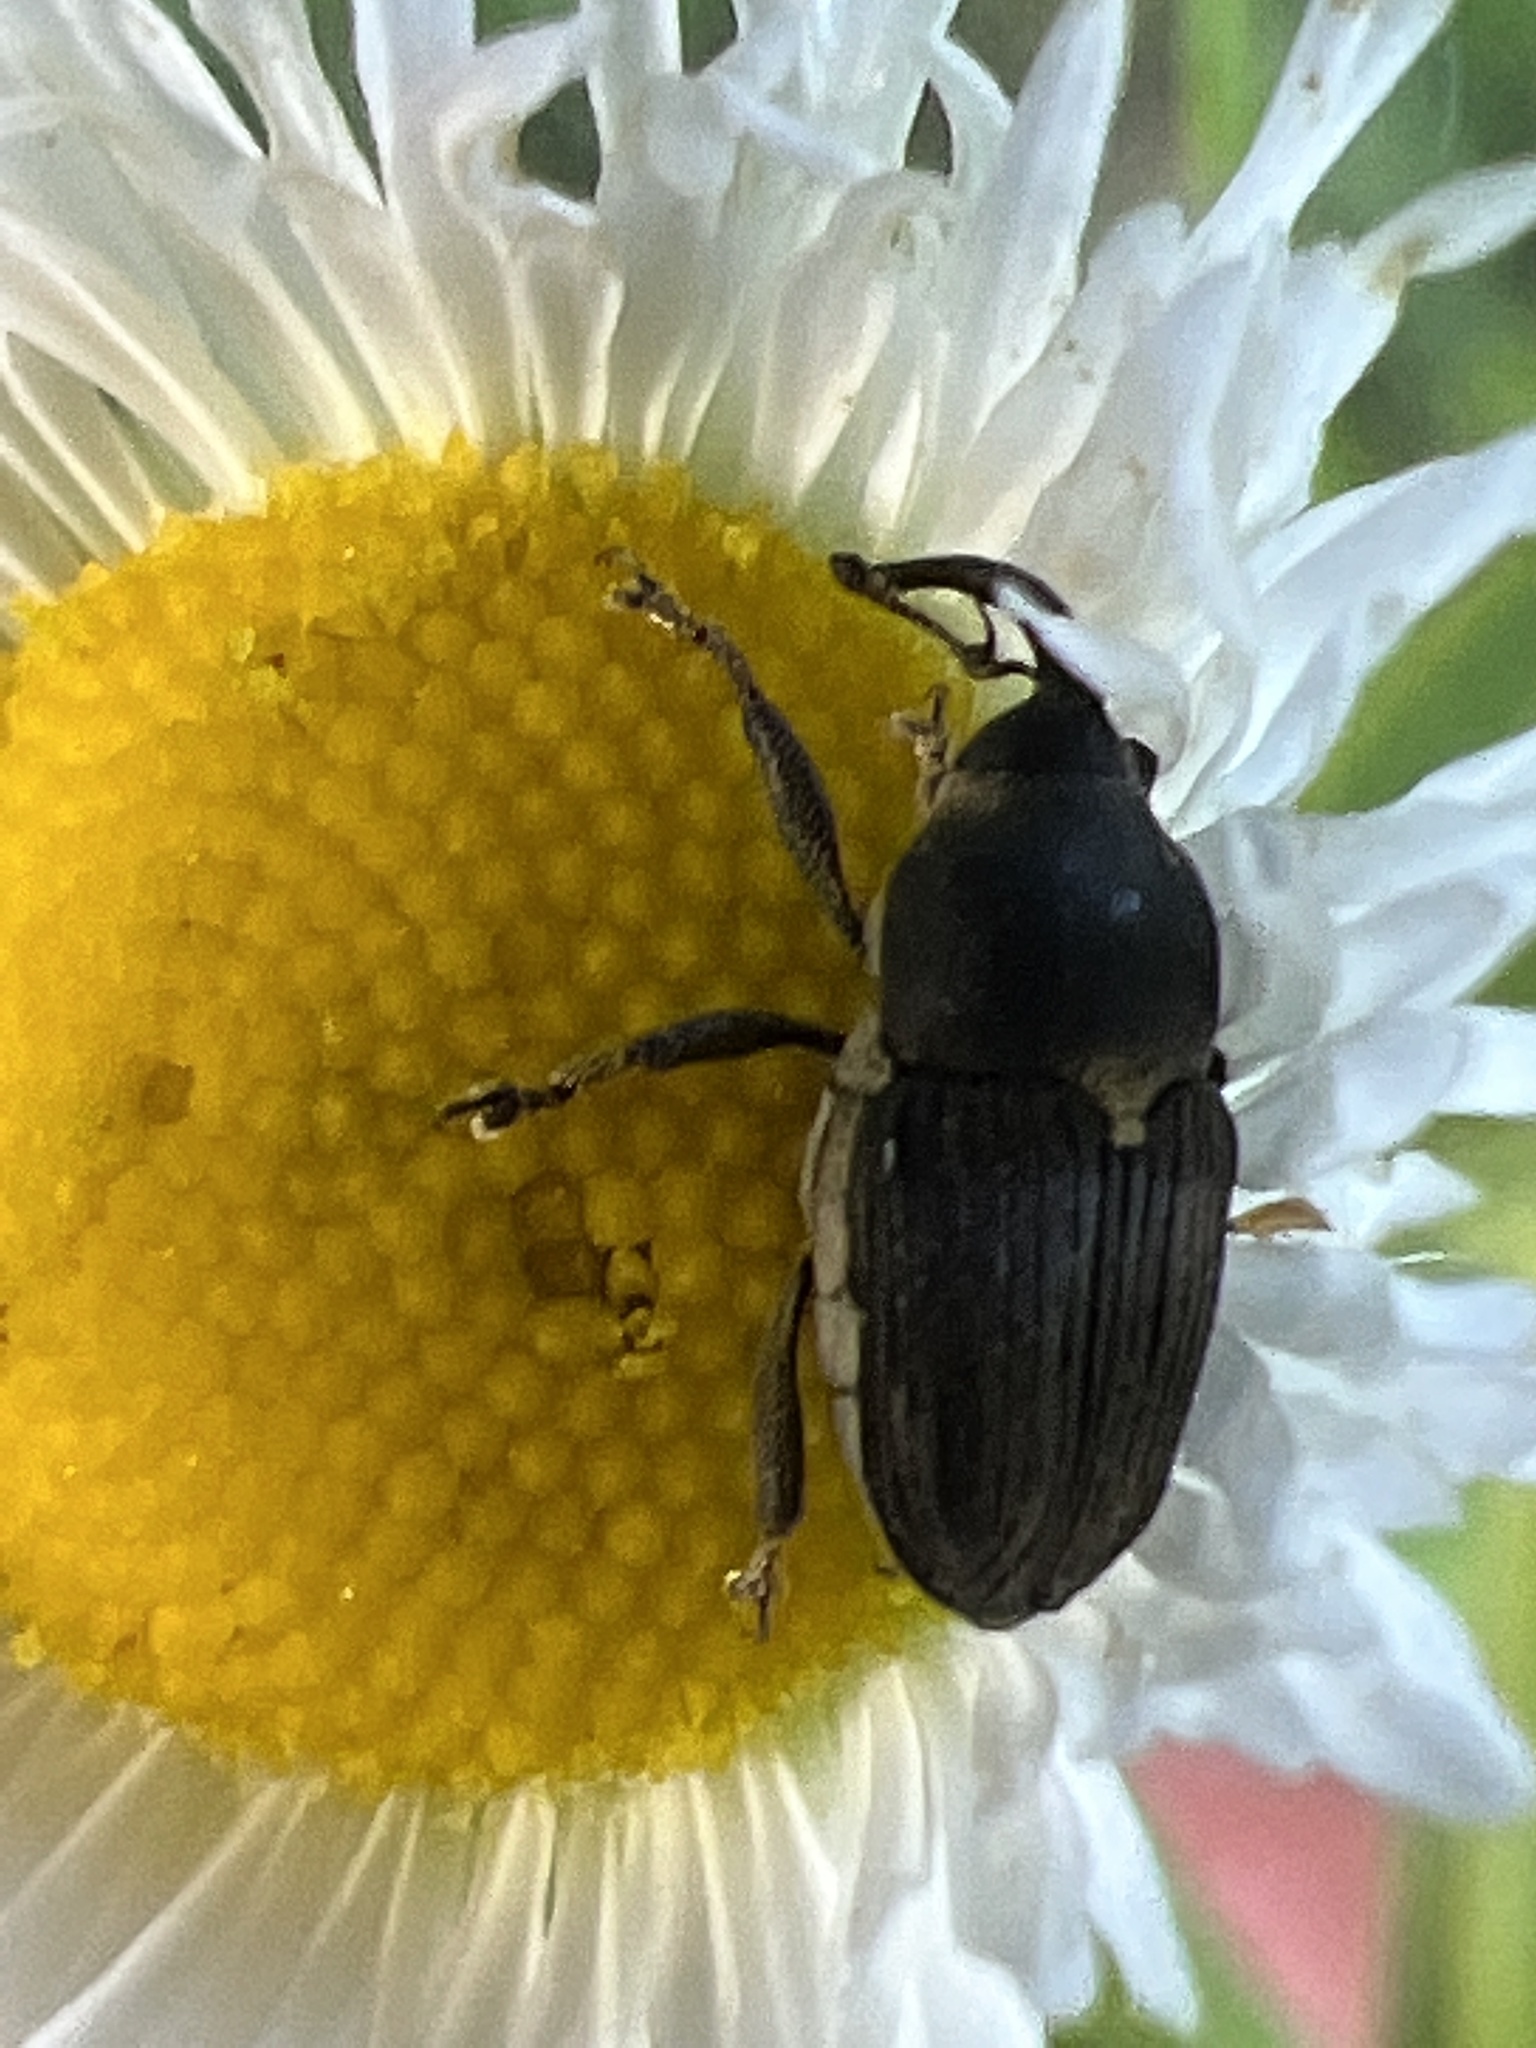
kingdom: Animalia
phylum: Arthropoda
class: Insecta
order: Coleoptera
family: Curculionidae
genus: Odontocorynus
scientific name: Odontocorynus salebrosus
